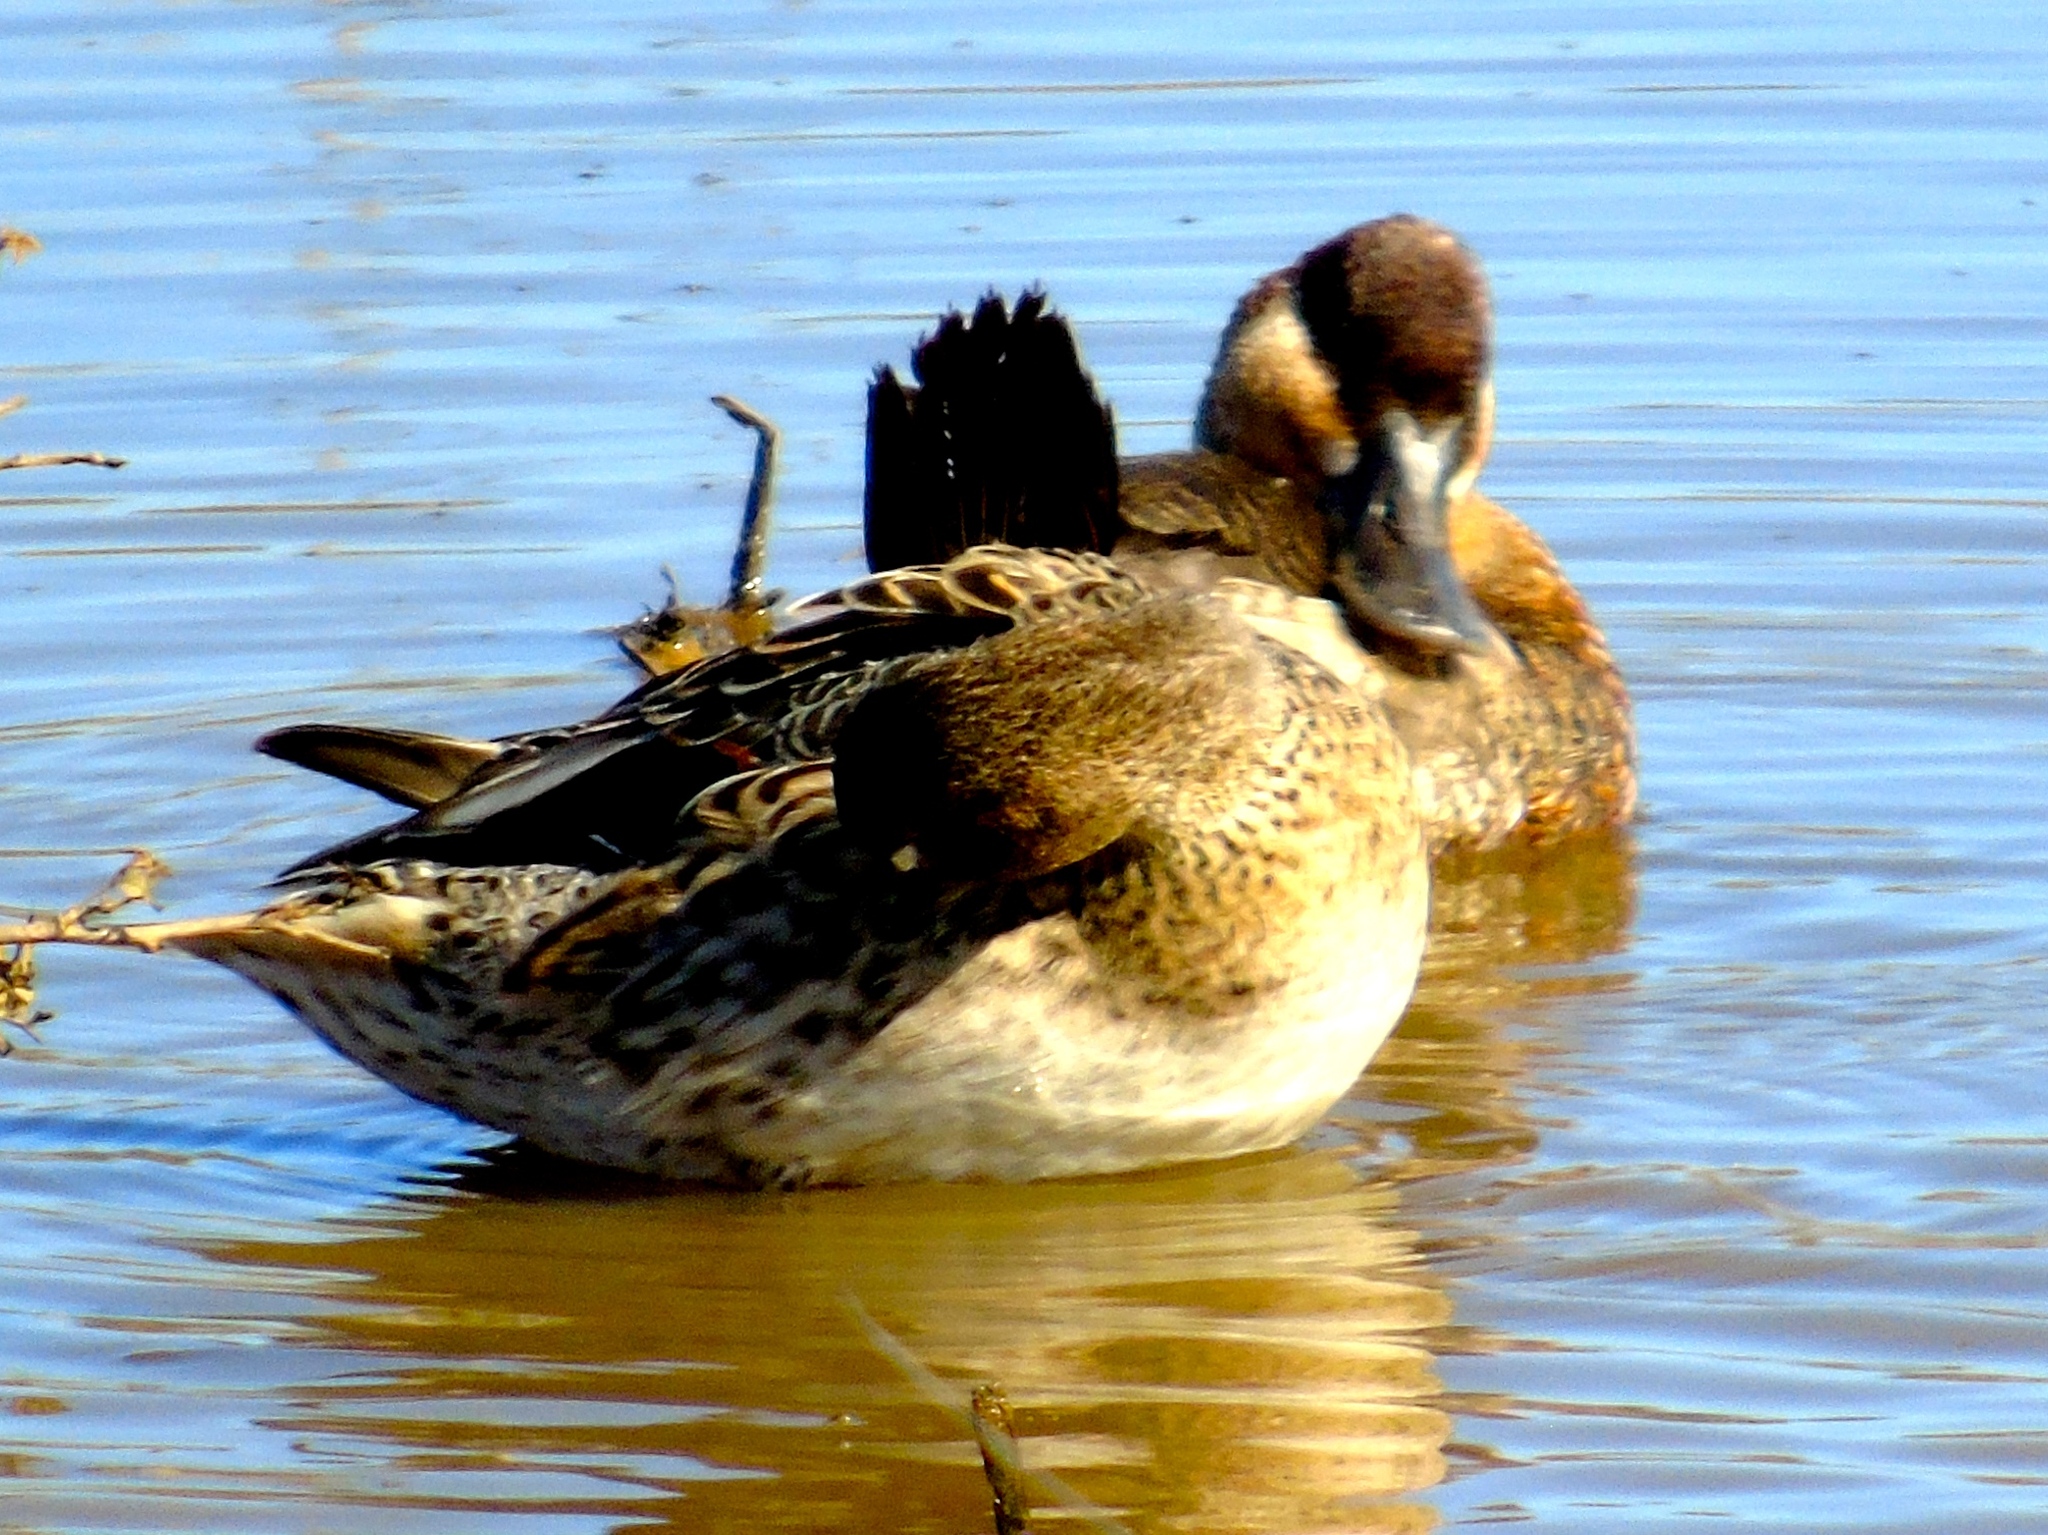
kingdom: Animalia
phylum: Chordata
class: Aves
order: Anseriformes
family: Anatidae
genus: Oxyura
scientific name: Oxyura jamaicensis
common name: Ruddy duck
